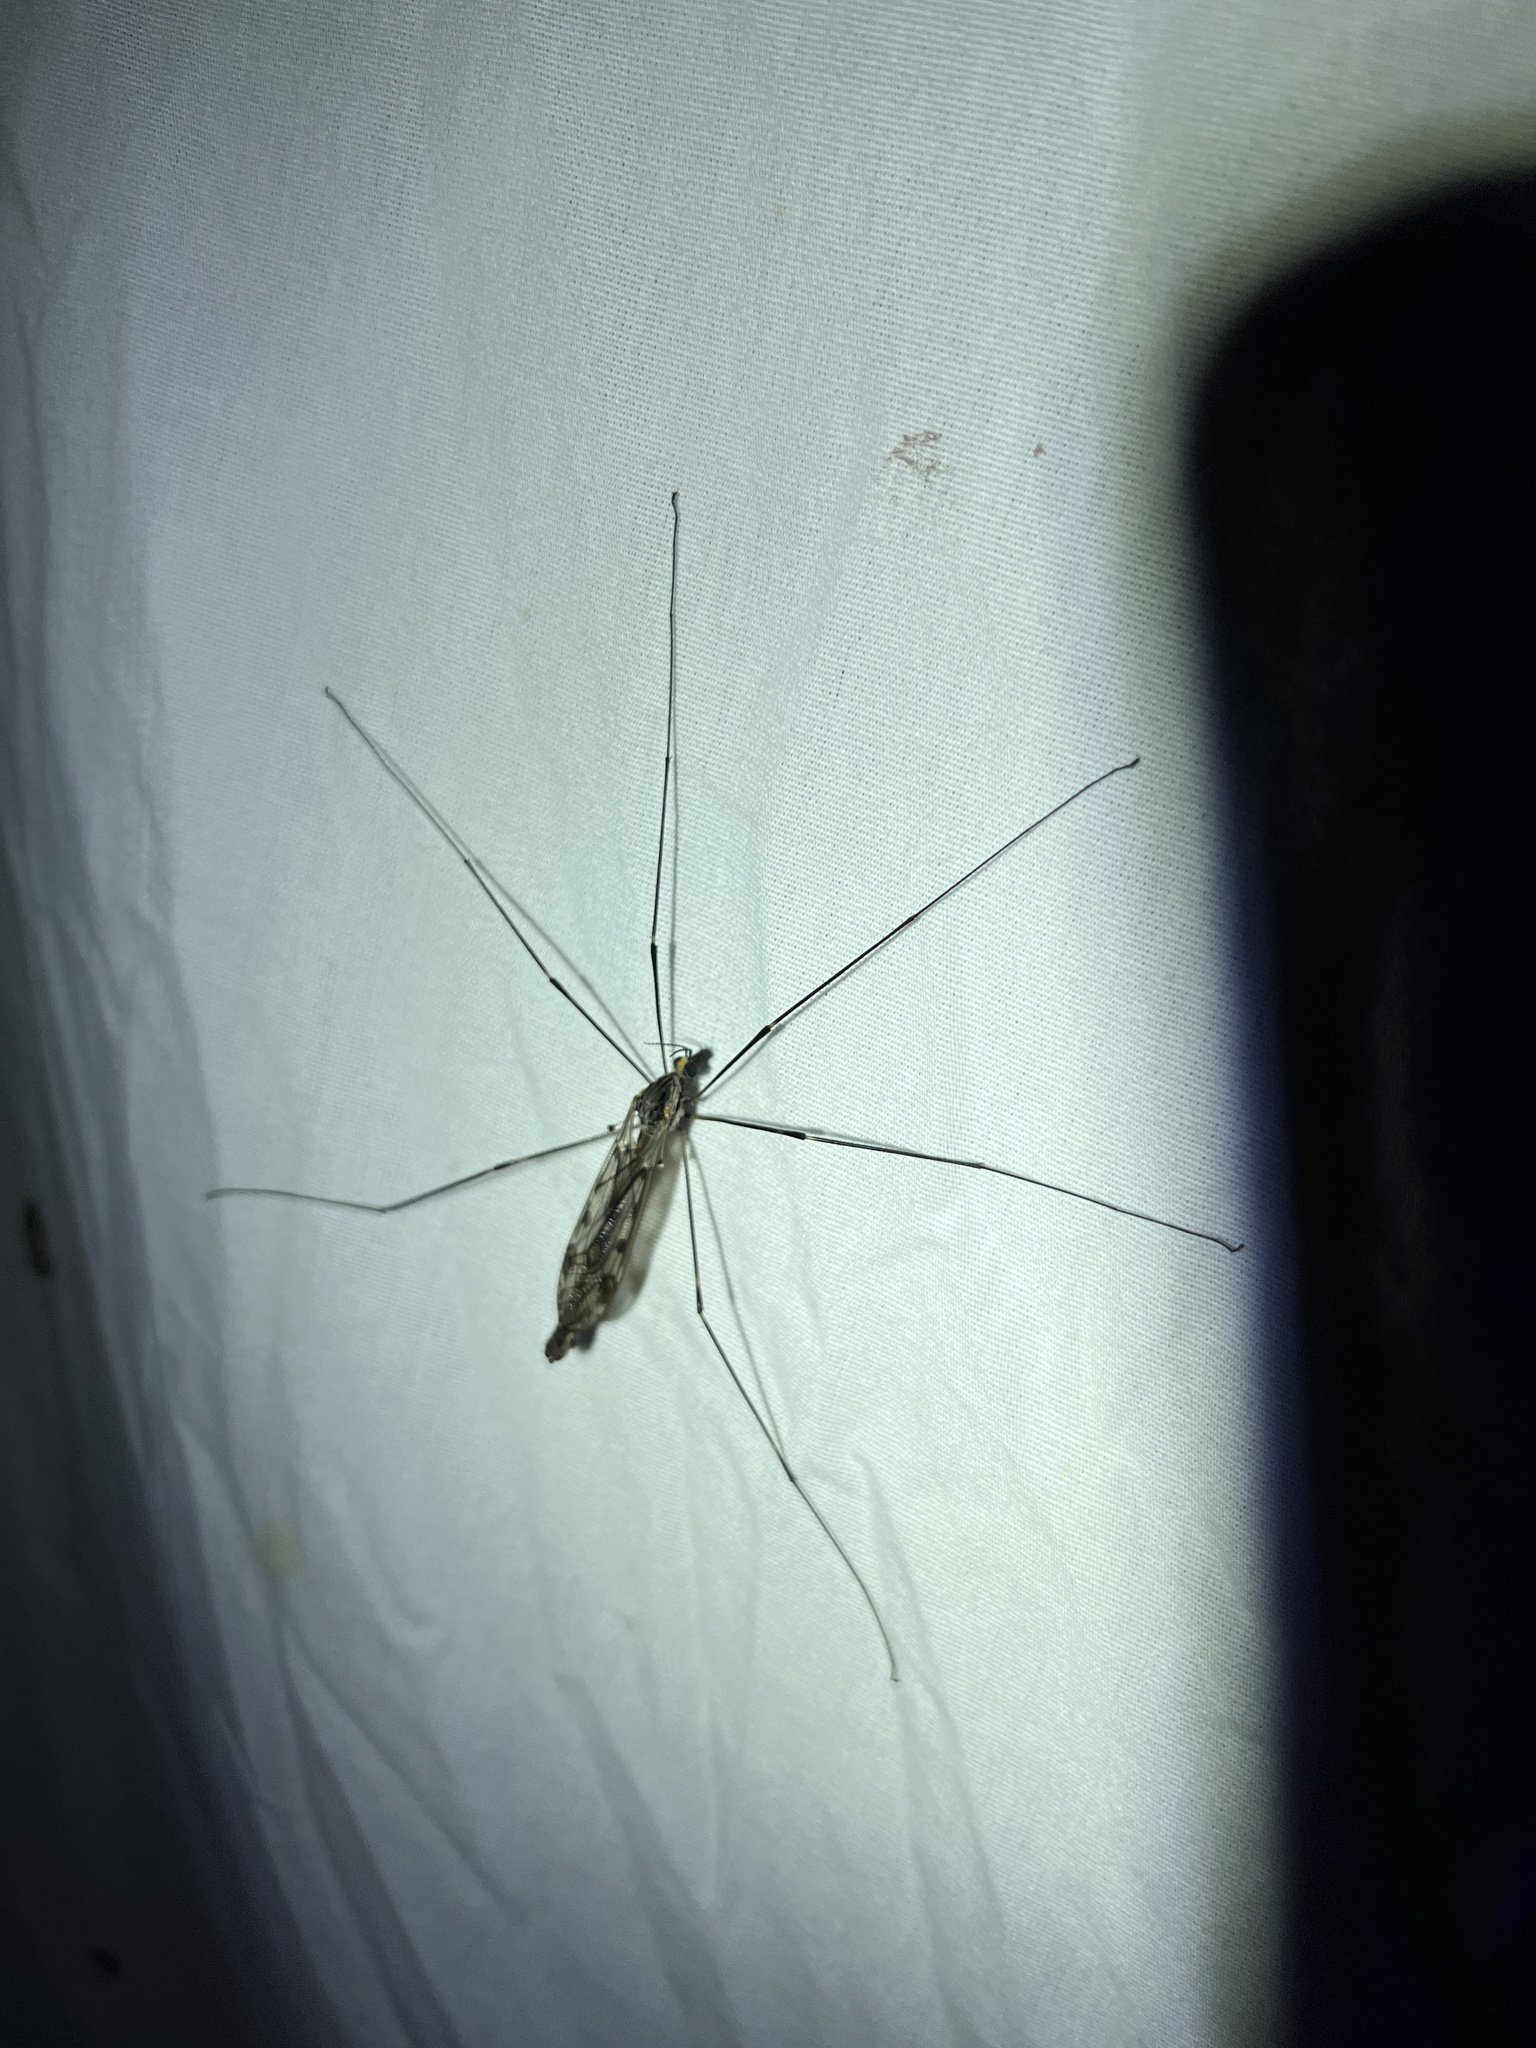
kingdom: Animalia
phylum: Arthropoda
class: Insecta
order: Diptera
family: Tipulidae
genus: Tipula
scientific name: Tipula abdominalis
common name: Giant crane fly
